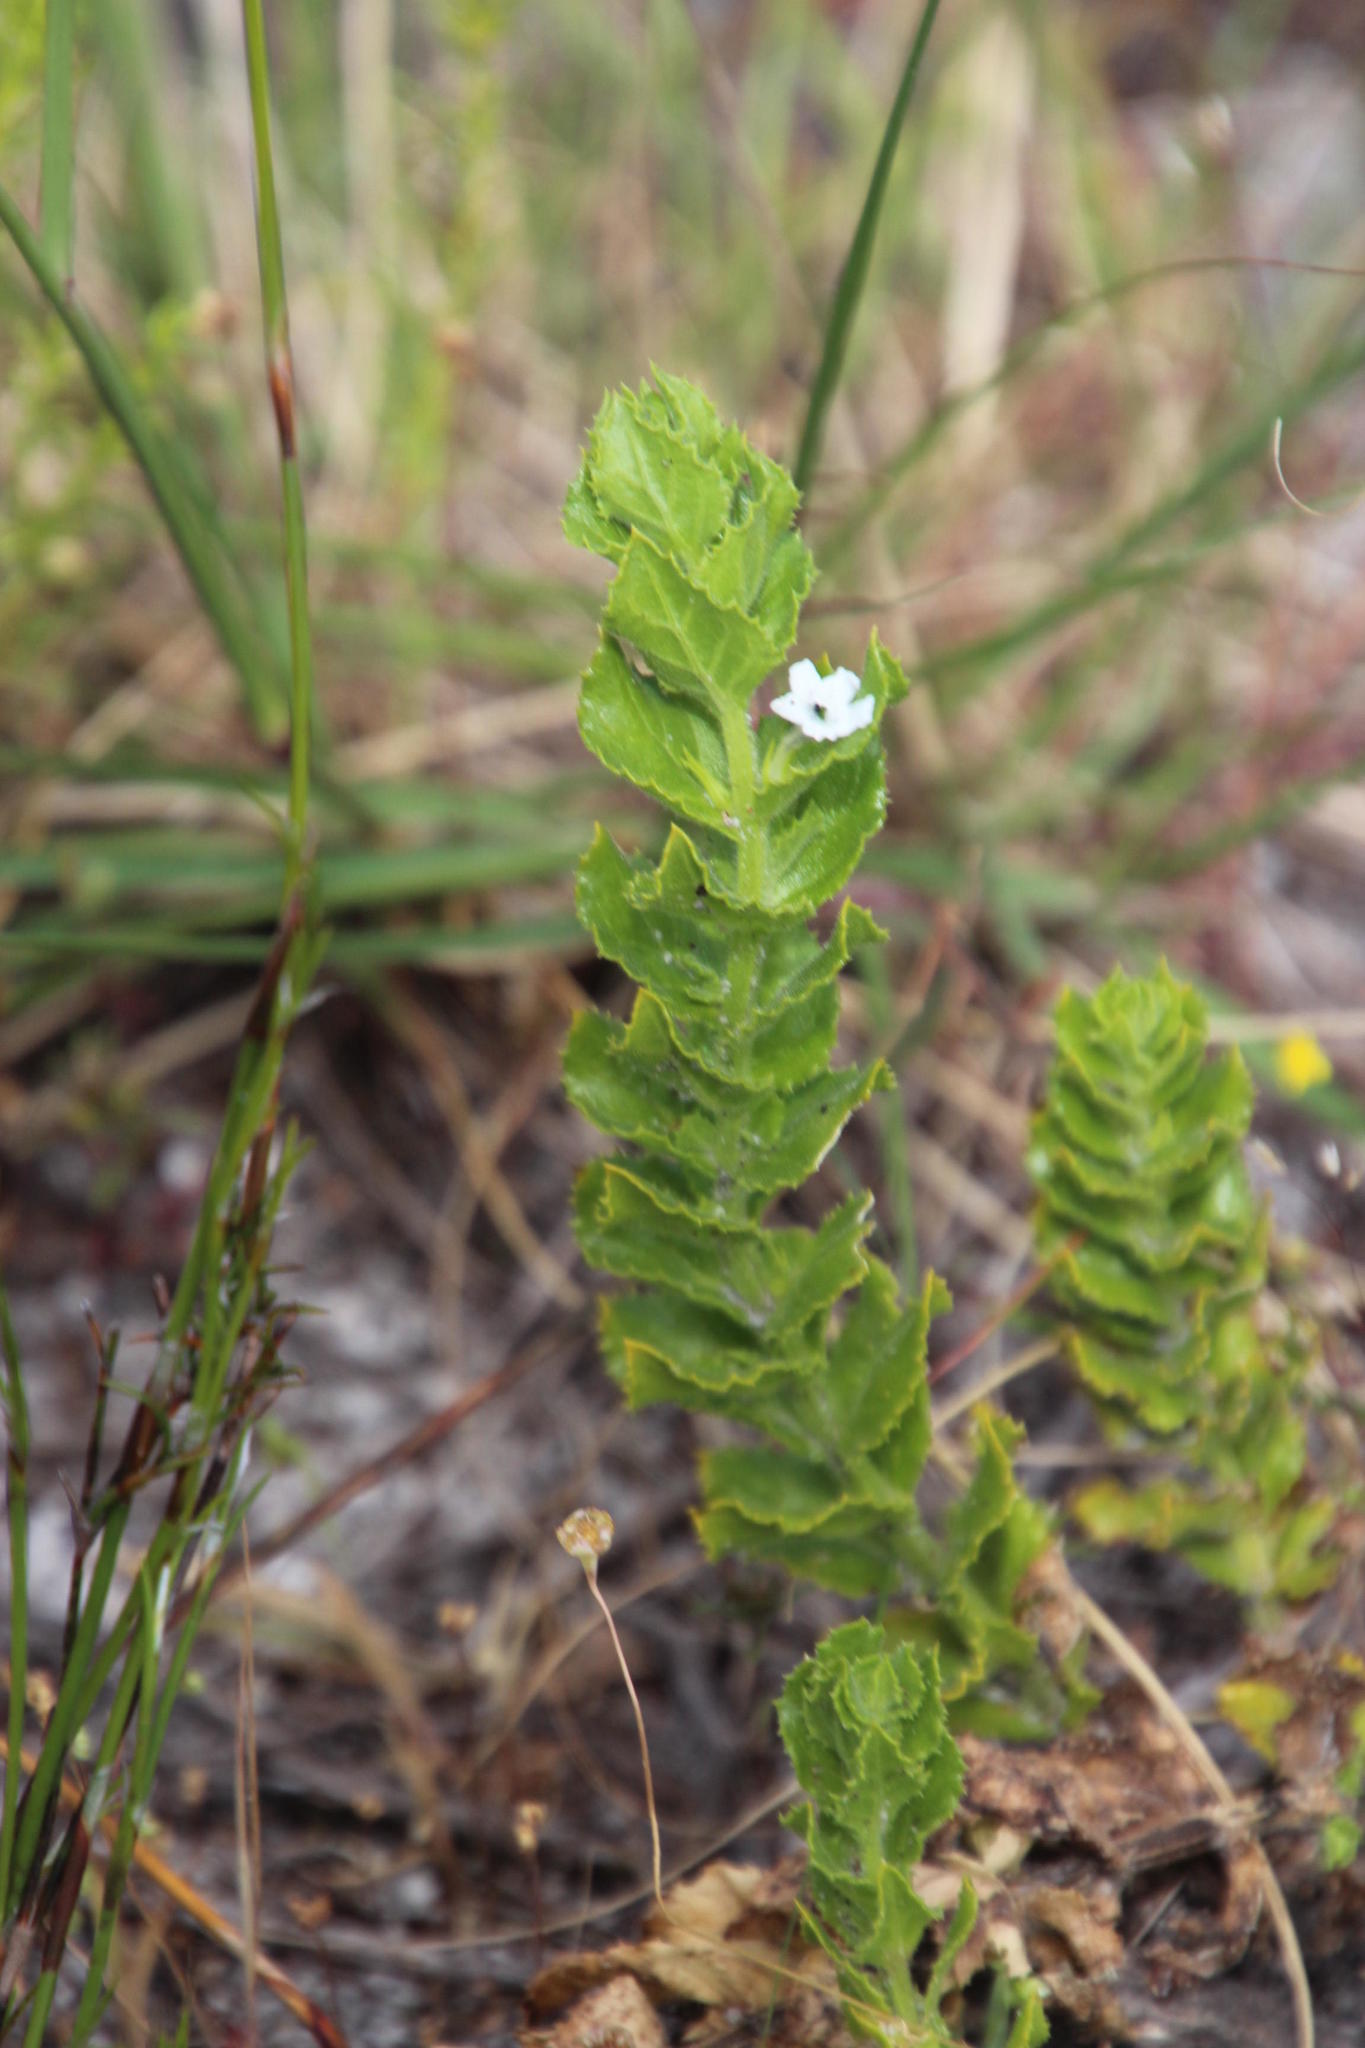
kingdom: Plantae
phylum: Tracheophyta
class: Magnoliopsida
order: Lamiales
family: Scrophulariaceae
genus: Oftia
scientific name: Oftia africana
